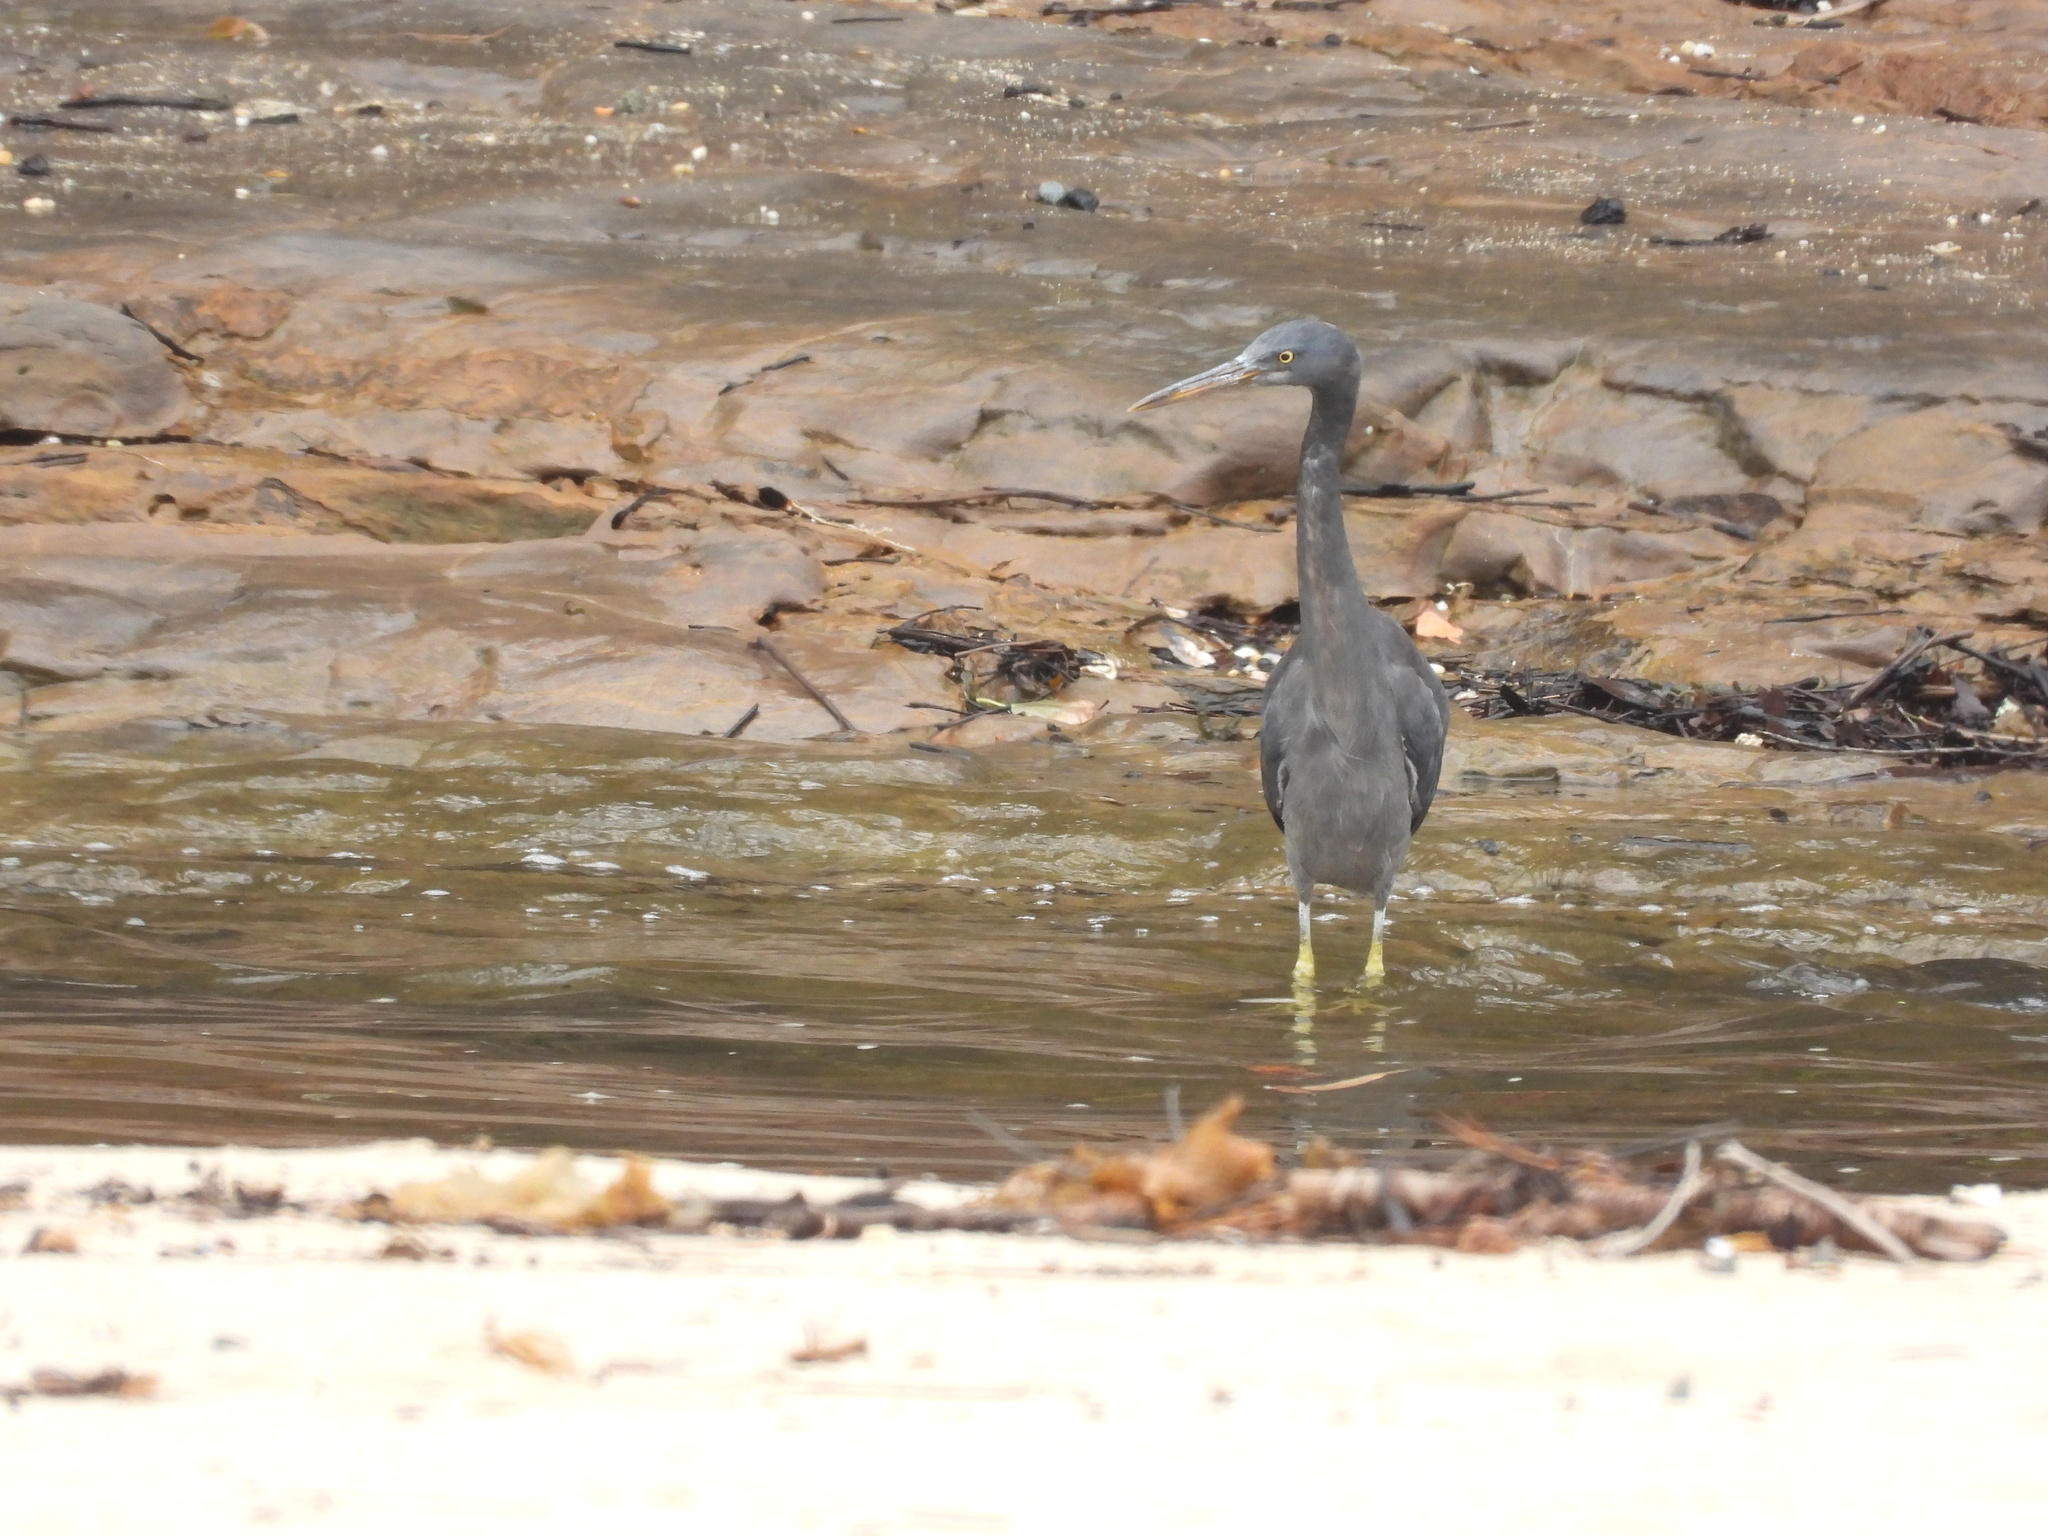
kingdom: Animalia
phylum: Chordata
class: Aves
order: Pelecaniformes
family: Ardeidae
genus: Egretta
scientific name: Egretta sacra
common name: Pacific reef heron
